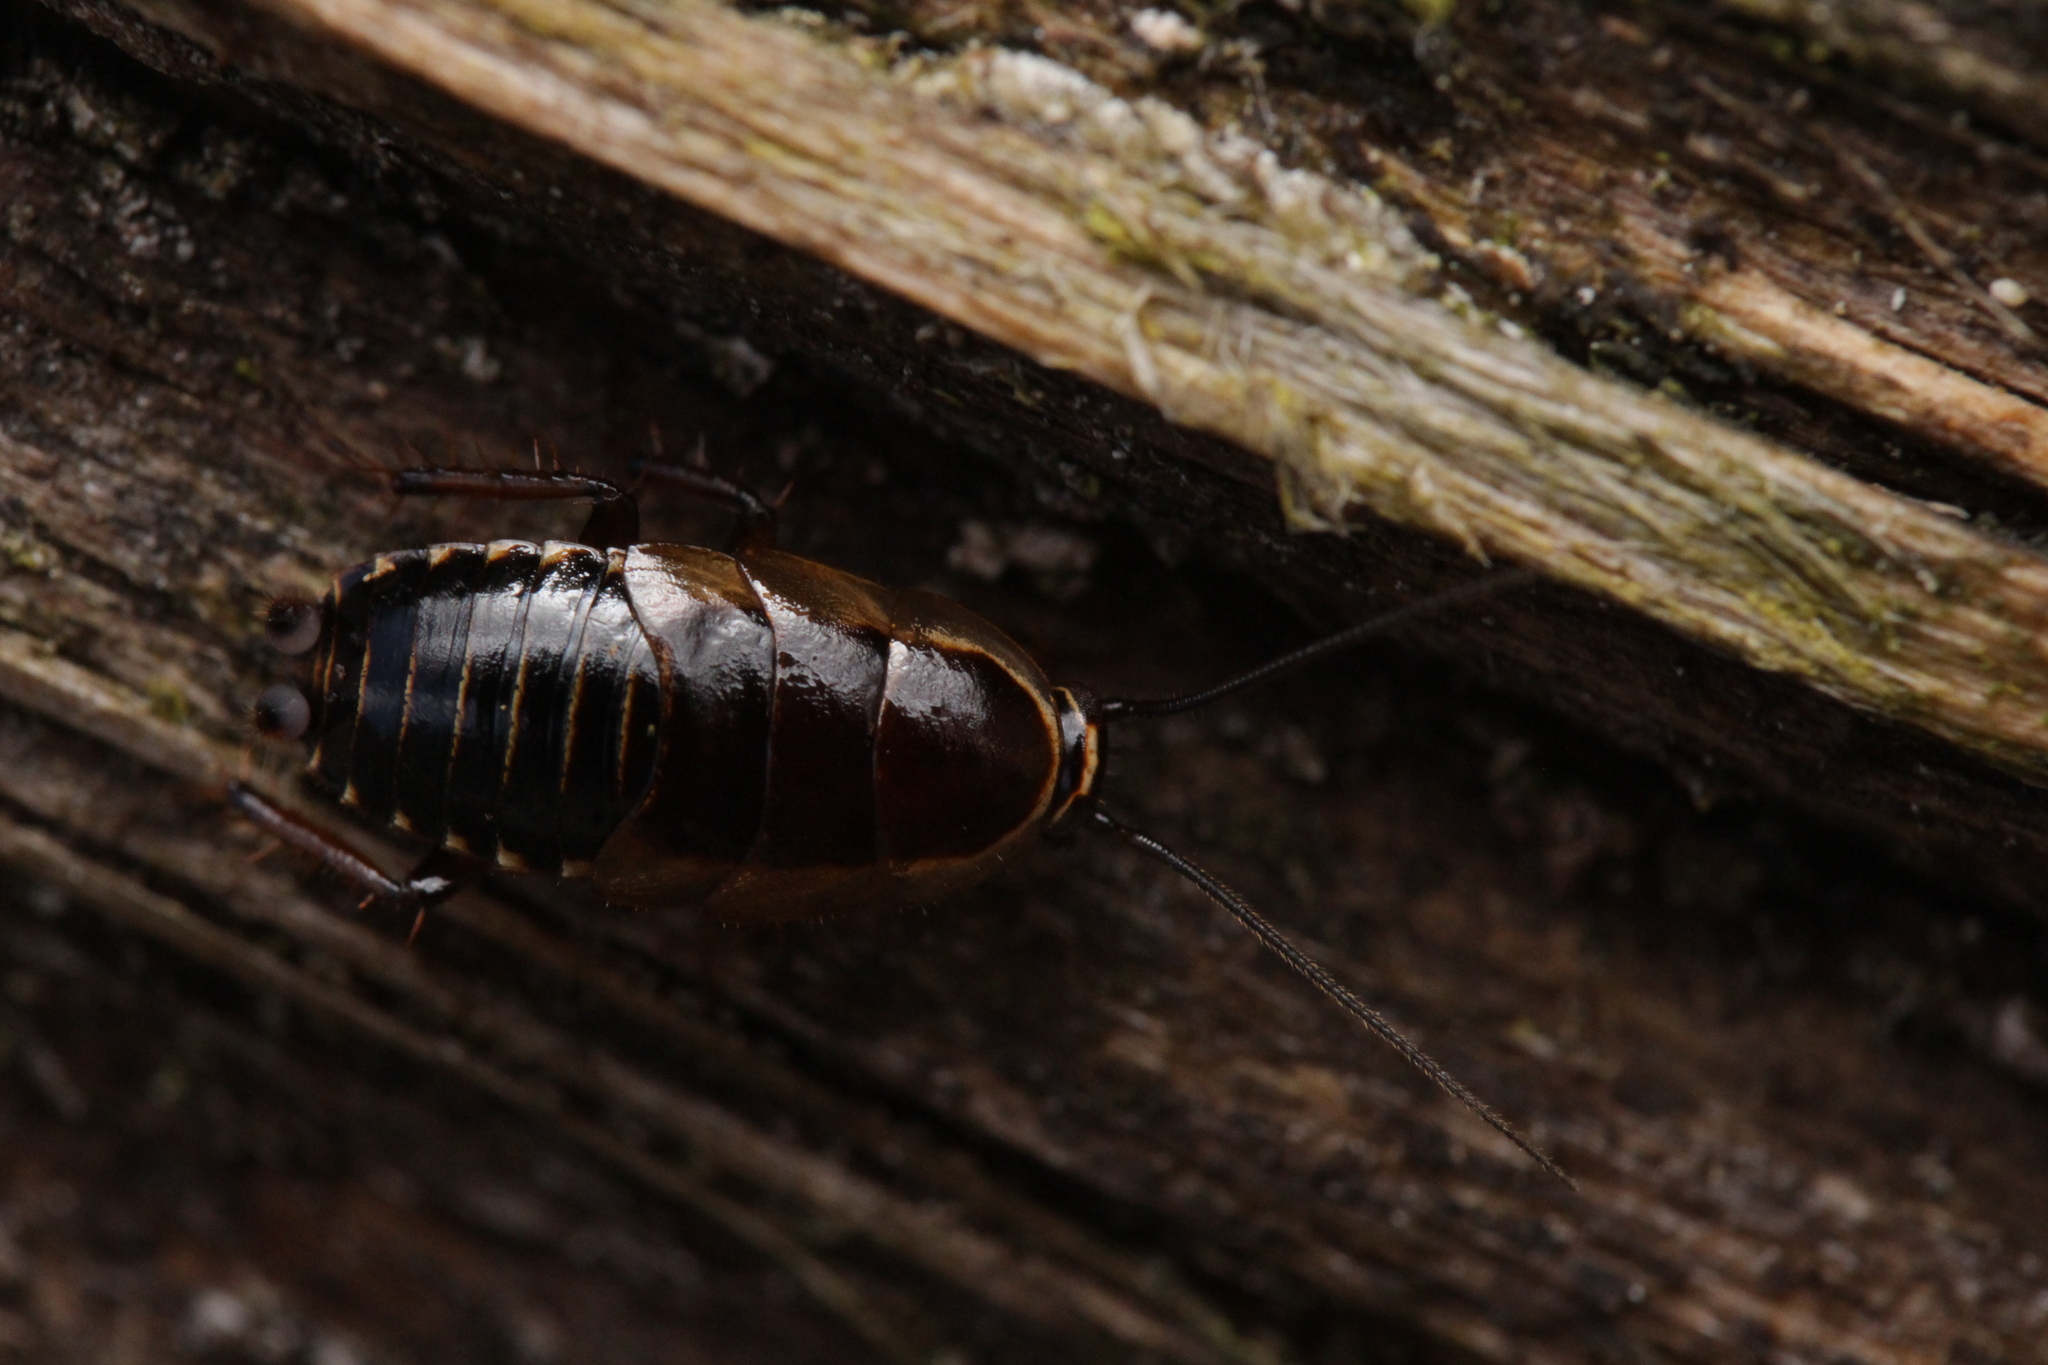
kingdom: Animalia
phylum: Arthropoda
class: Insecta
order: Blattodea
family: Ectobiidae
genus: Ectobius
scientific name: Ectobius sylvestris
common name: Forest cockroach
